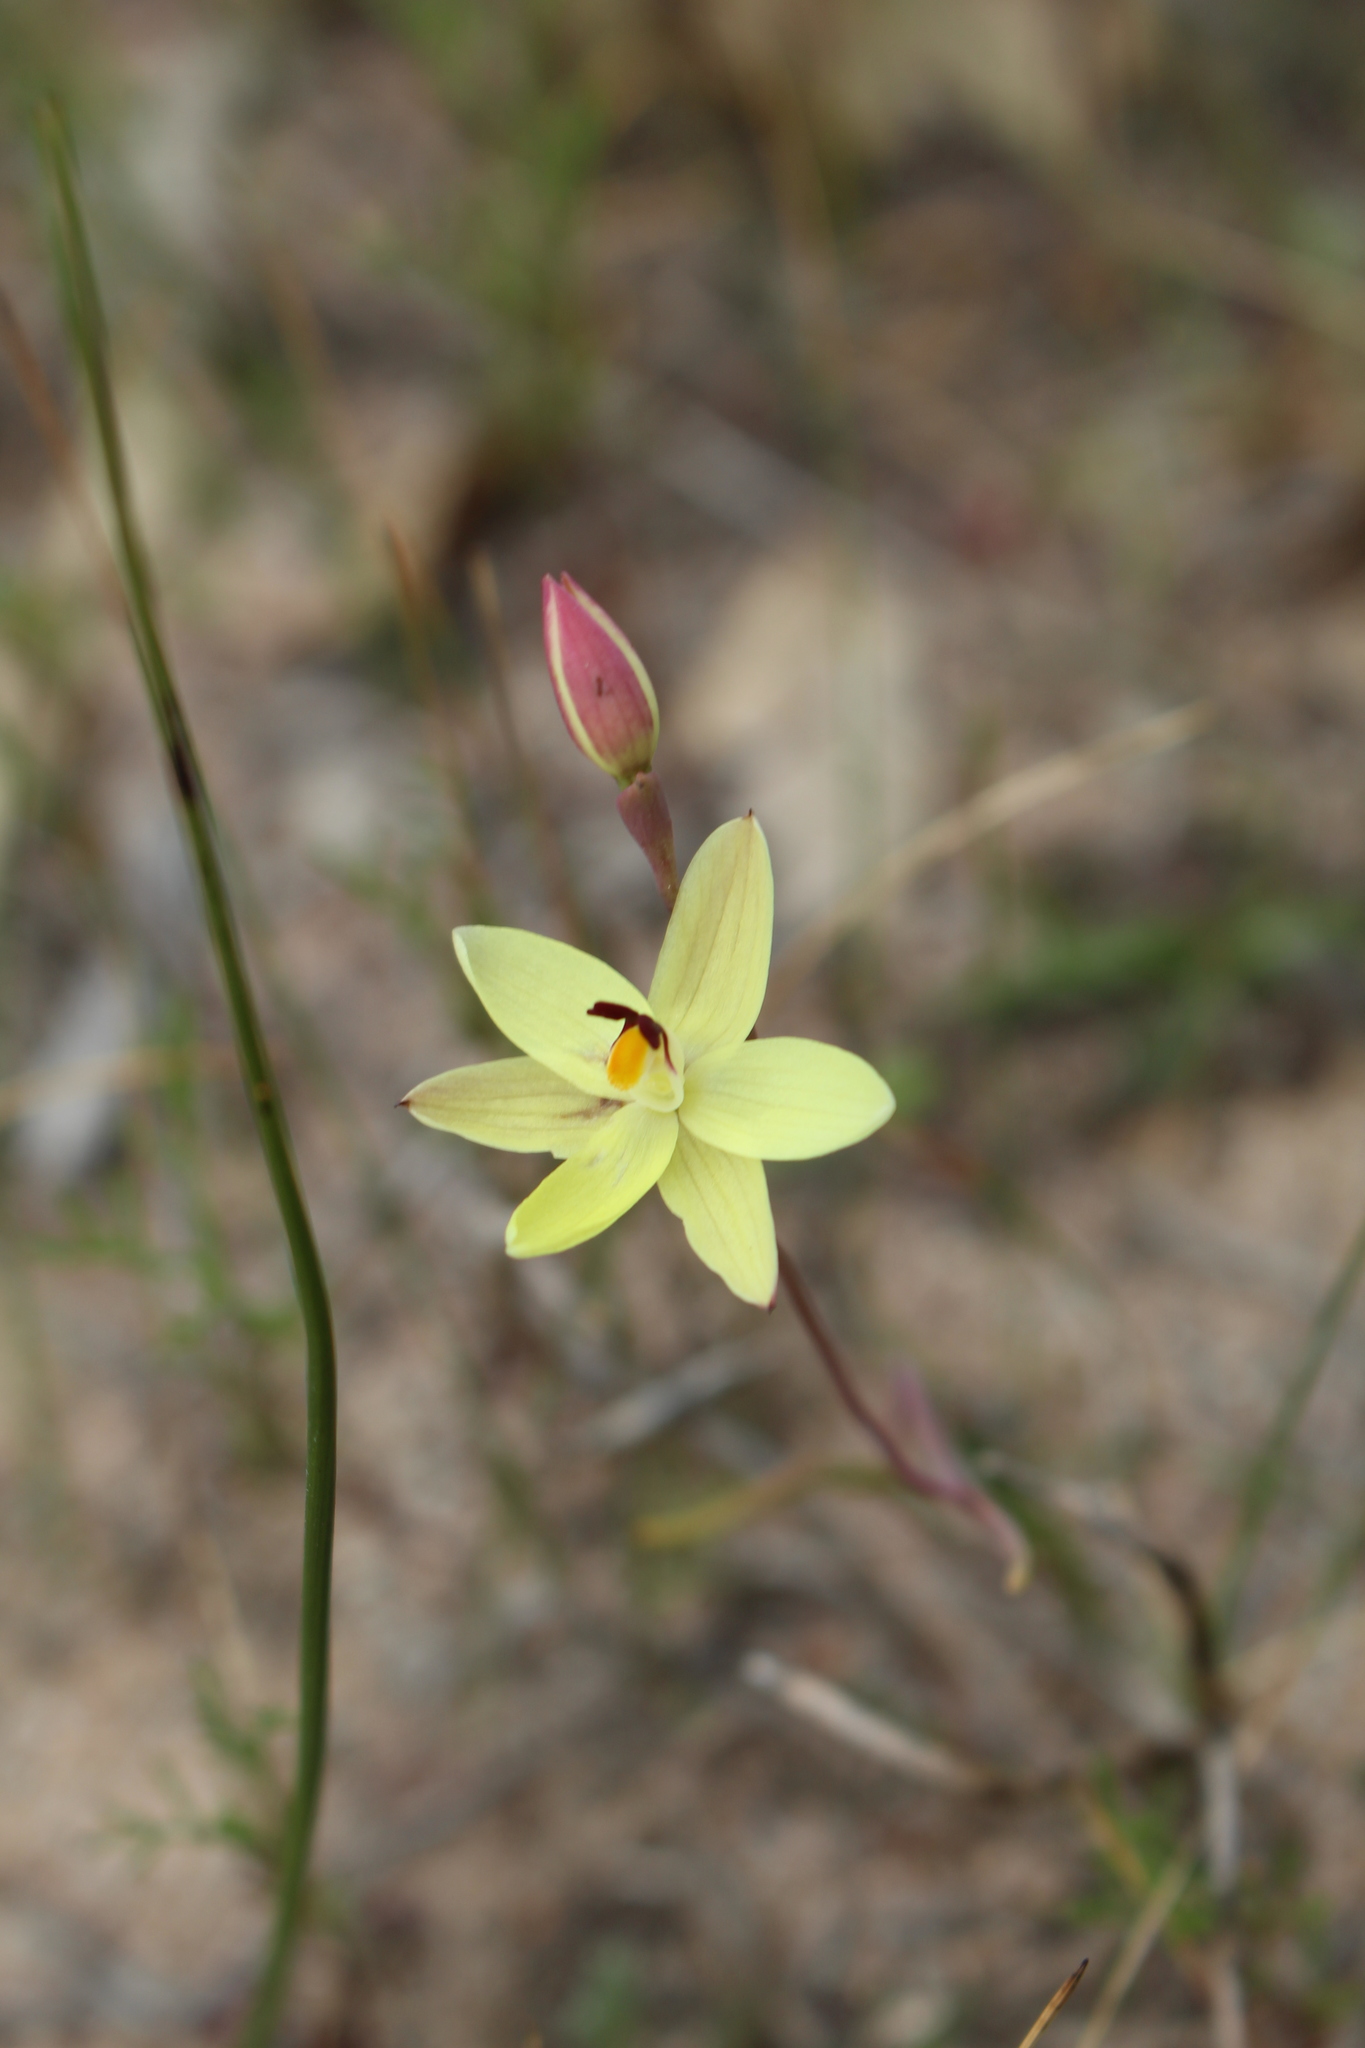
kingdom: Plantae
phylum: Tracheophyta
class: Liliopsida
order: Asparagales
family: Orchidaceae
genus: Thelymitra
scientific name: Thelymitra antennifera
